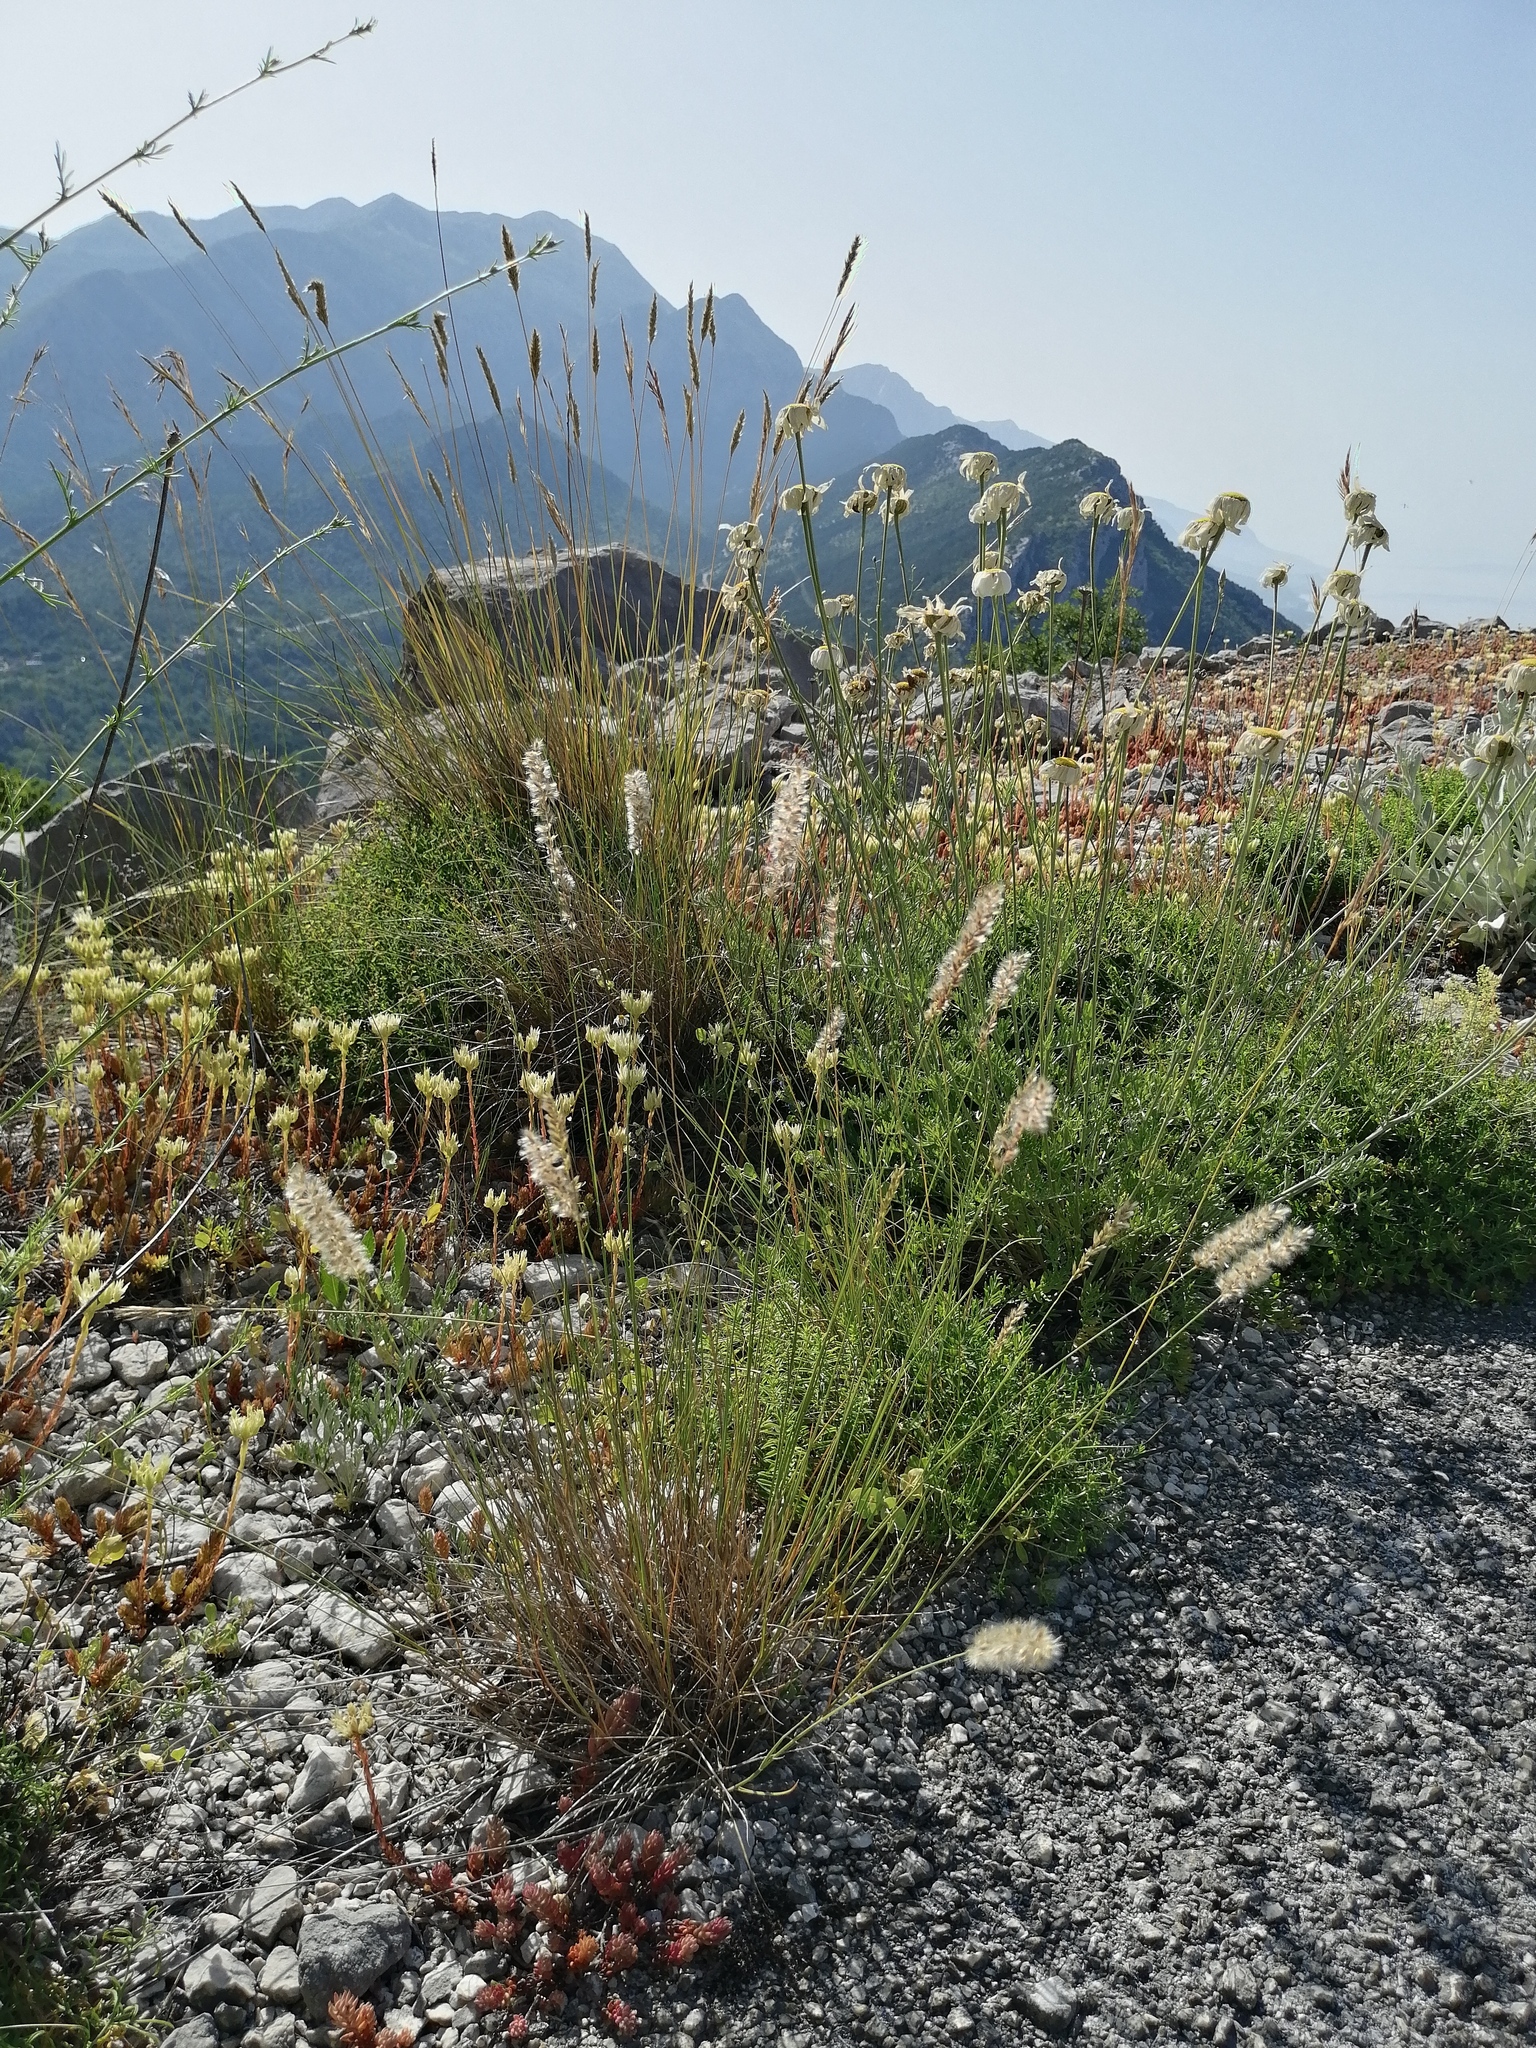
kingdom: Plantae
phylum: Tracheophyta
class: Liliopsida
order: Poales
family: Poaceae
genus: Melica
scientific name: Melica ciliata
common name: Hairy melicgrass
